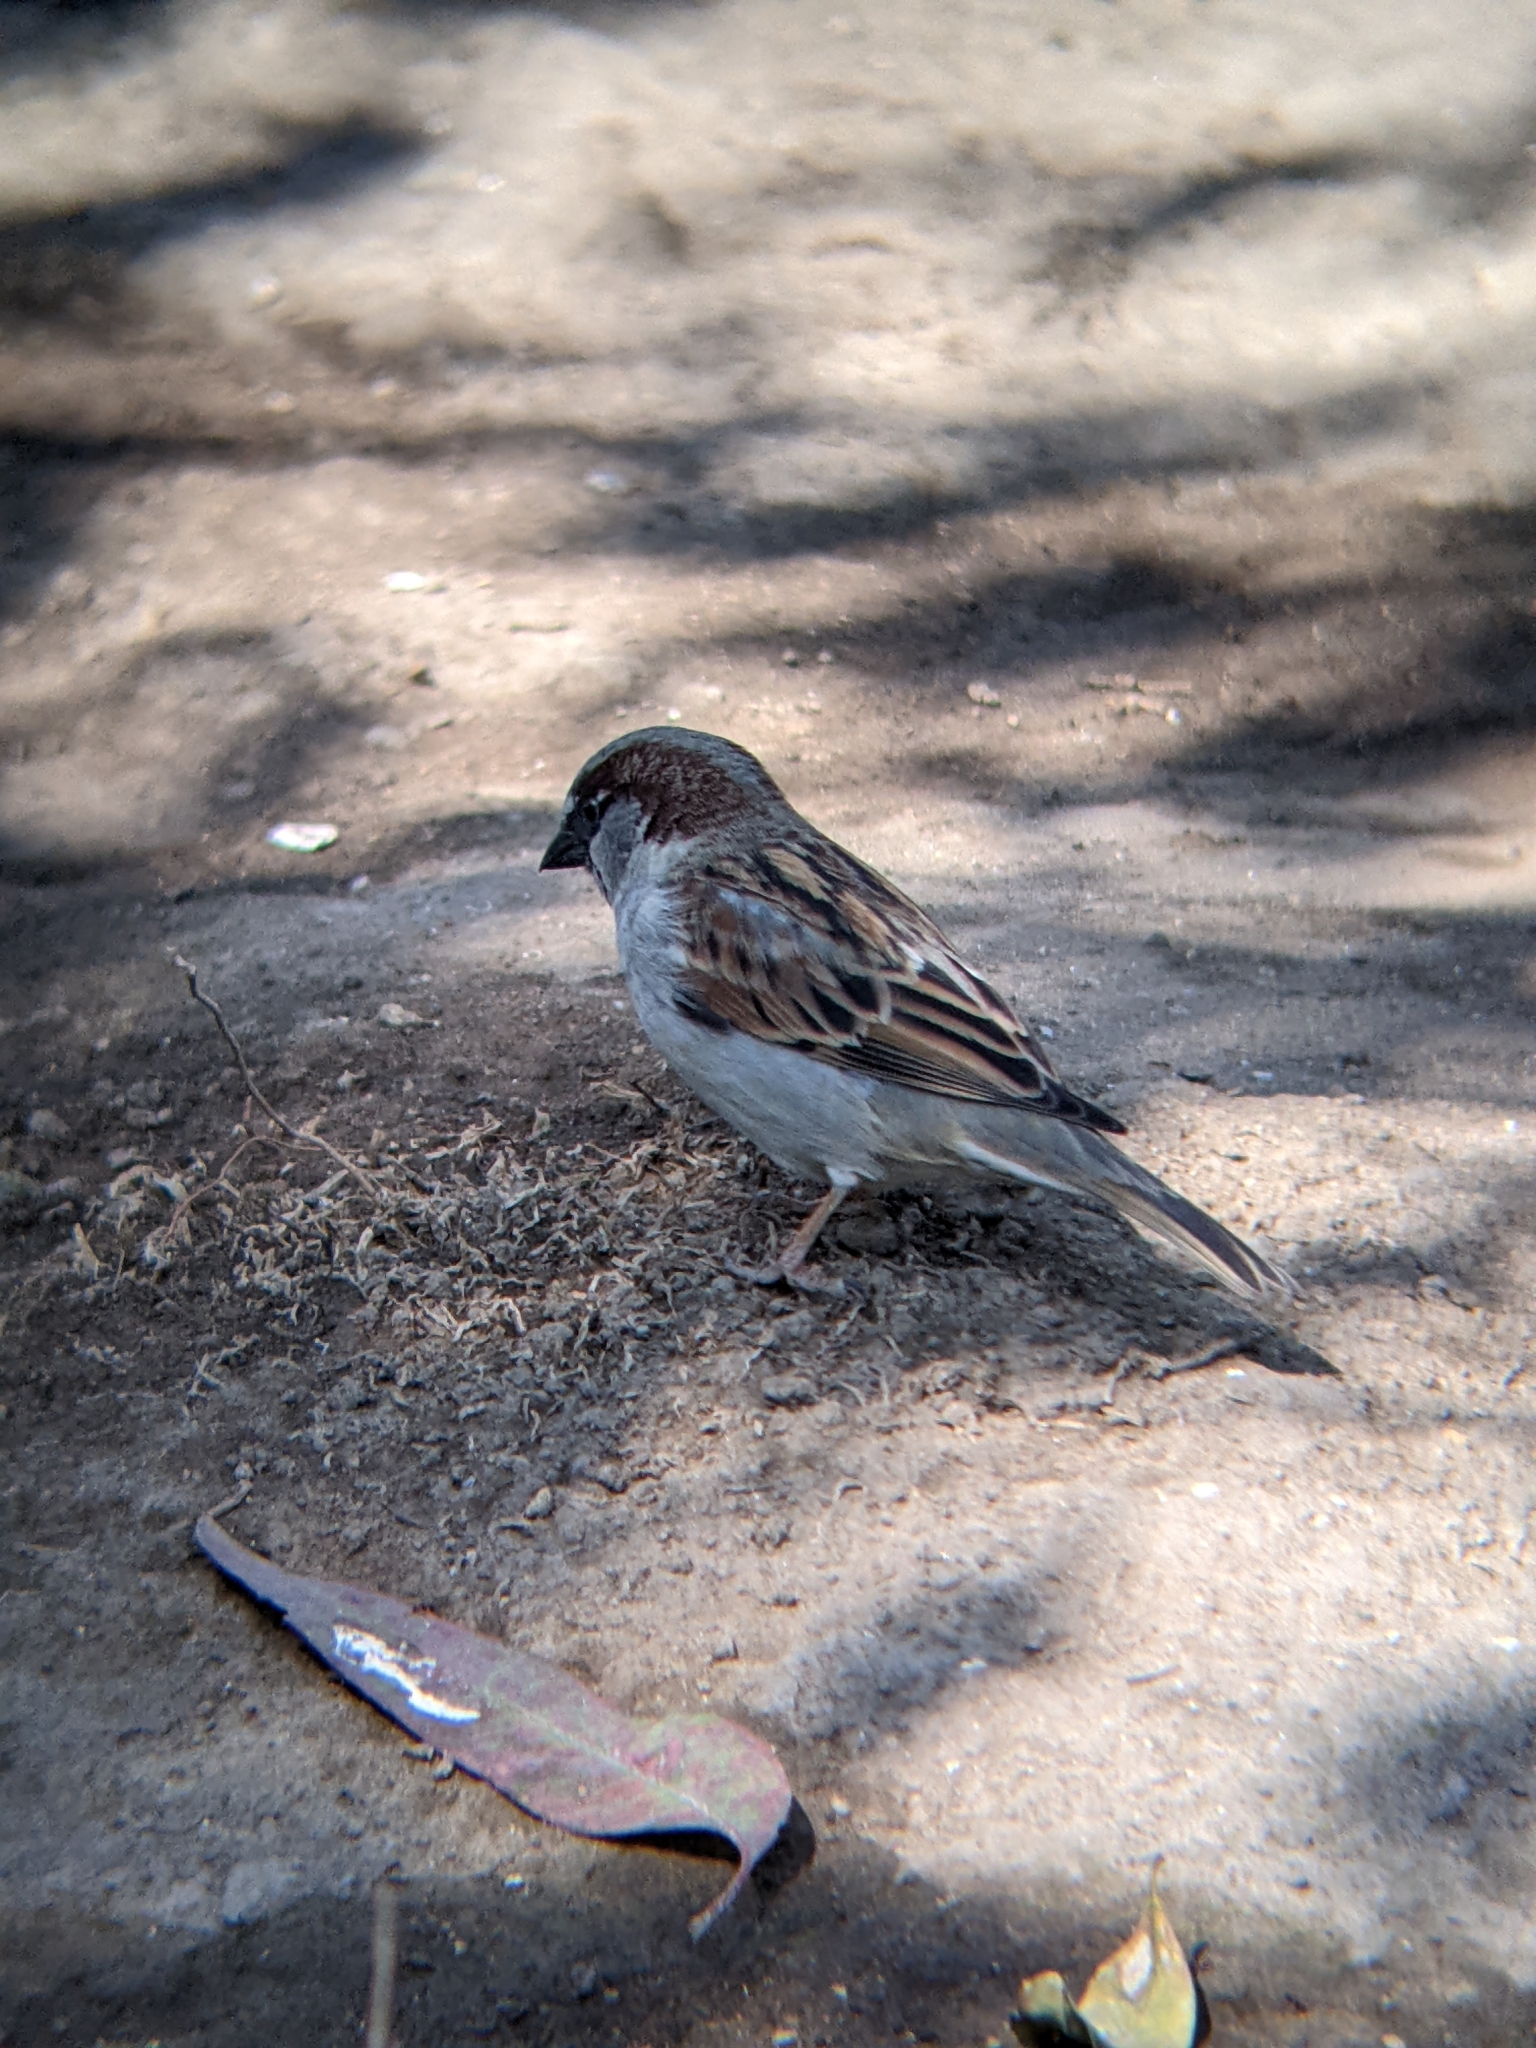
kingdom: Animalia
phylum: Chordata
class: Aves
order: Passeriformes
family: Passeridae
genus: Passer
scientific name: Passer domesticus
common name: House sparrow
